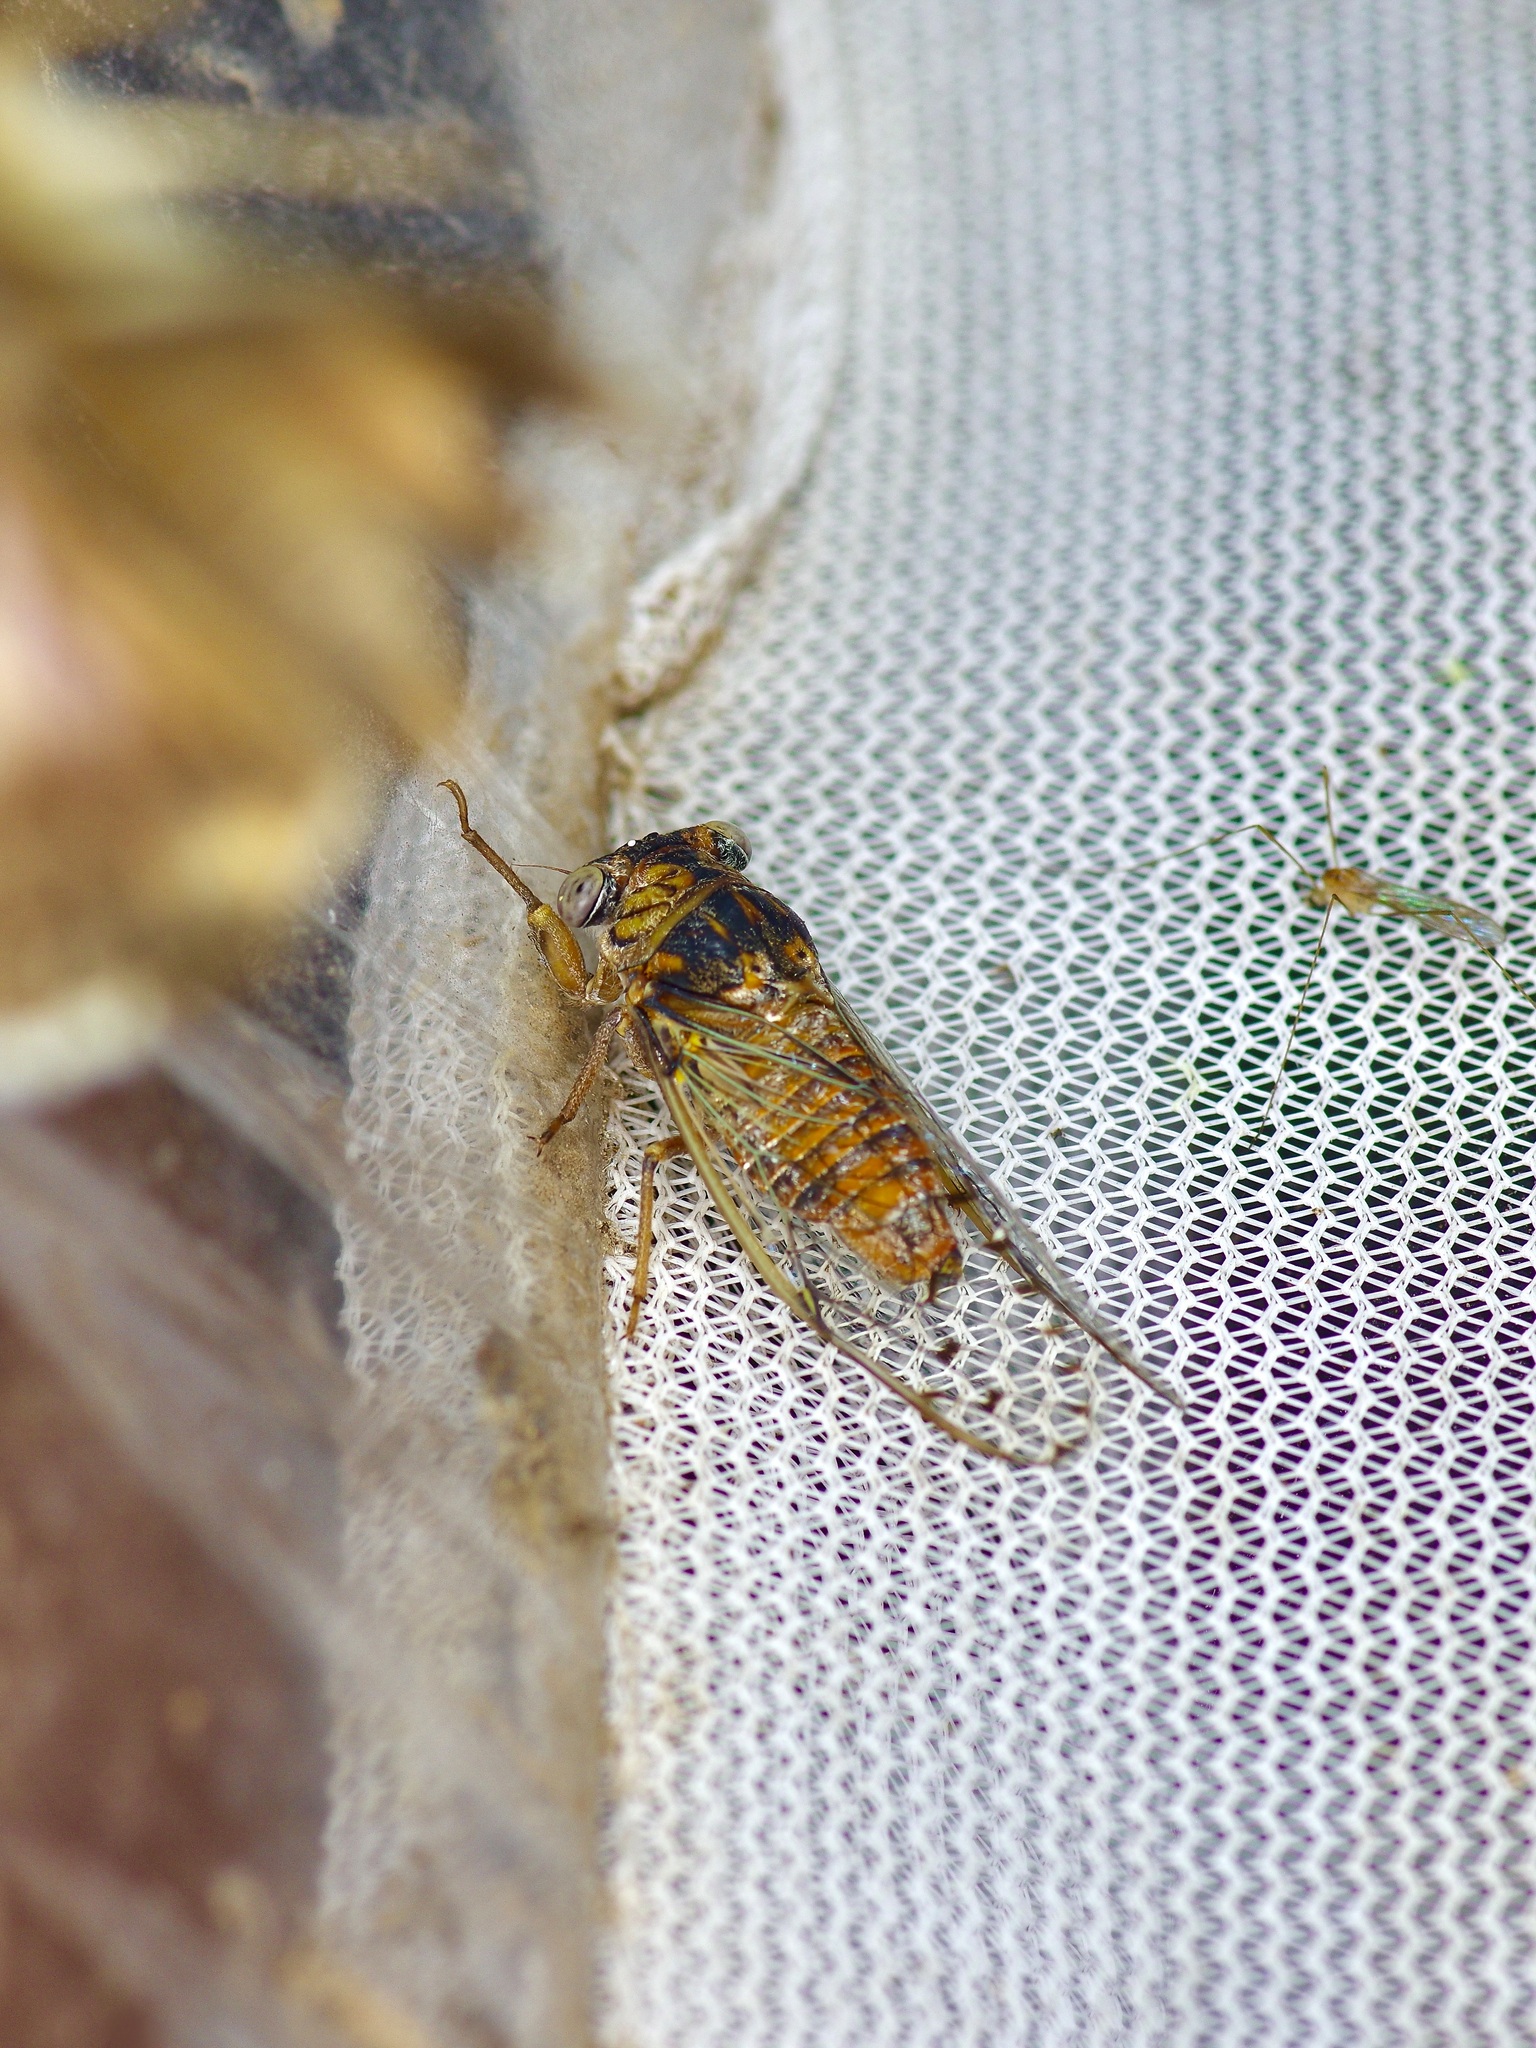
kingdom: Animalia
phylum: Arthropoda
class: Insecta
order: Hemiptera
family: Cicadidae
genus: Pacarina
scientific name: Pacarina puella
